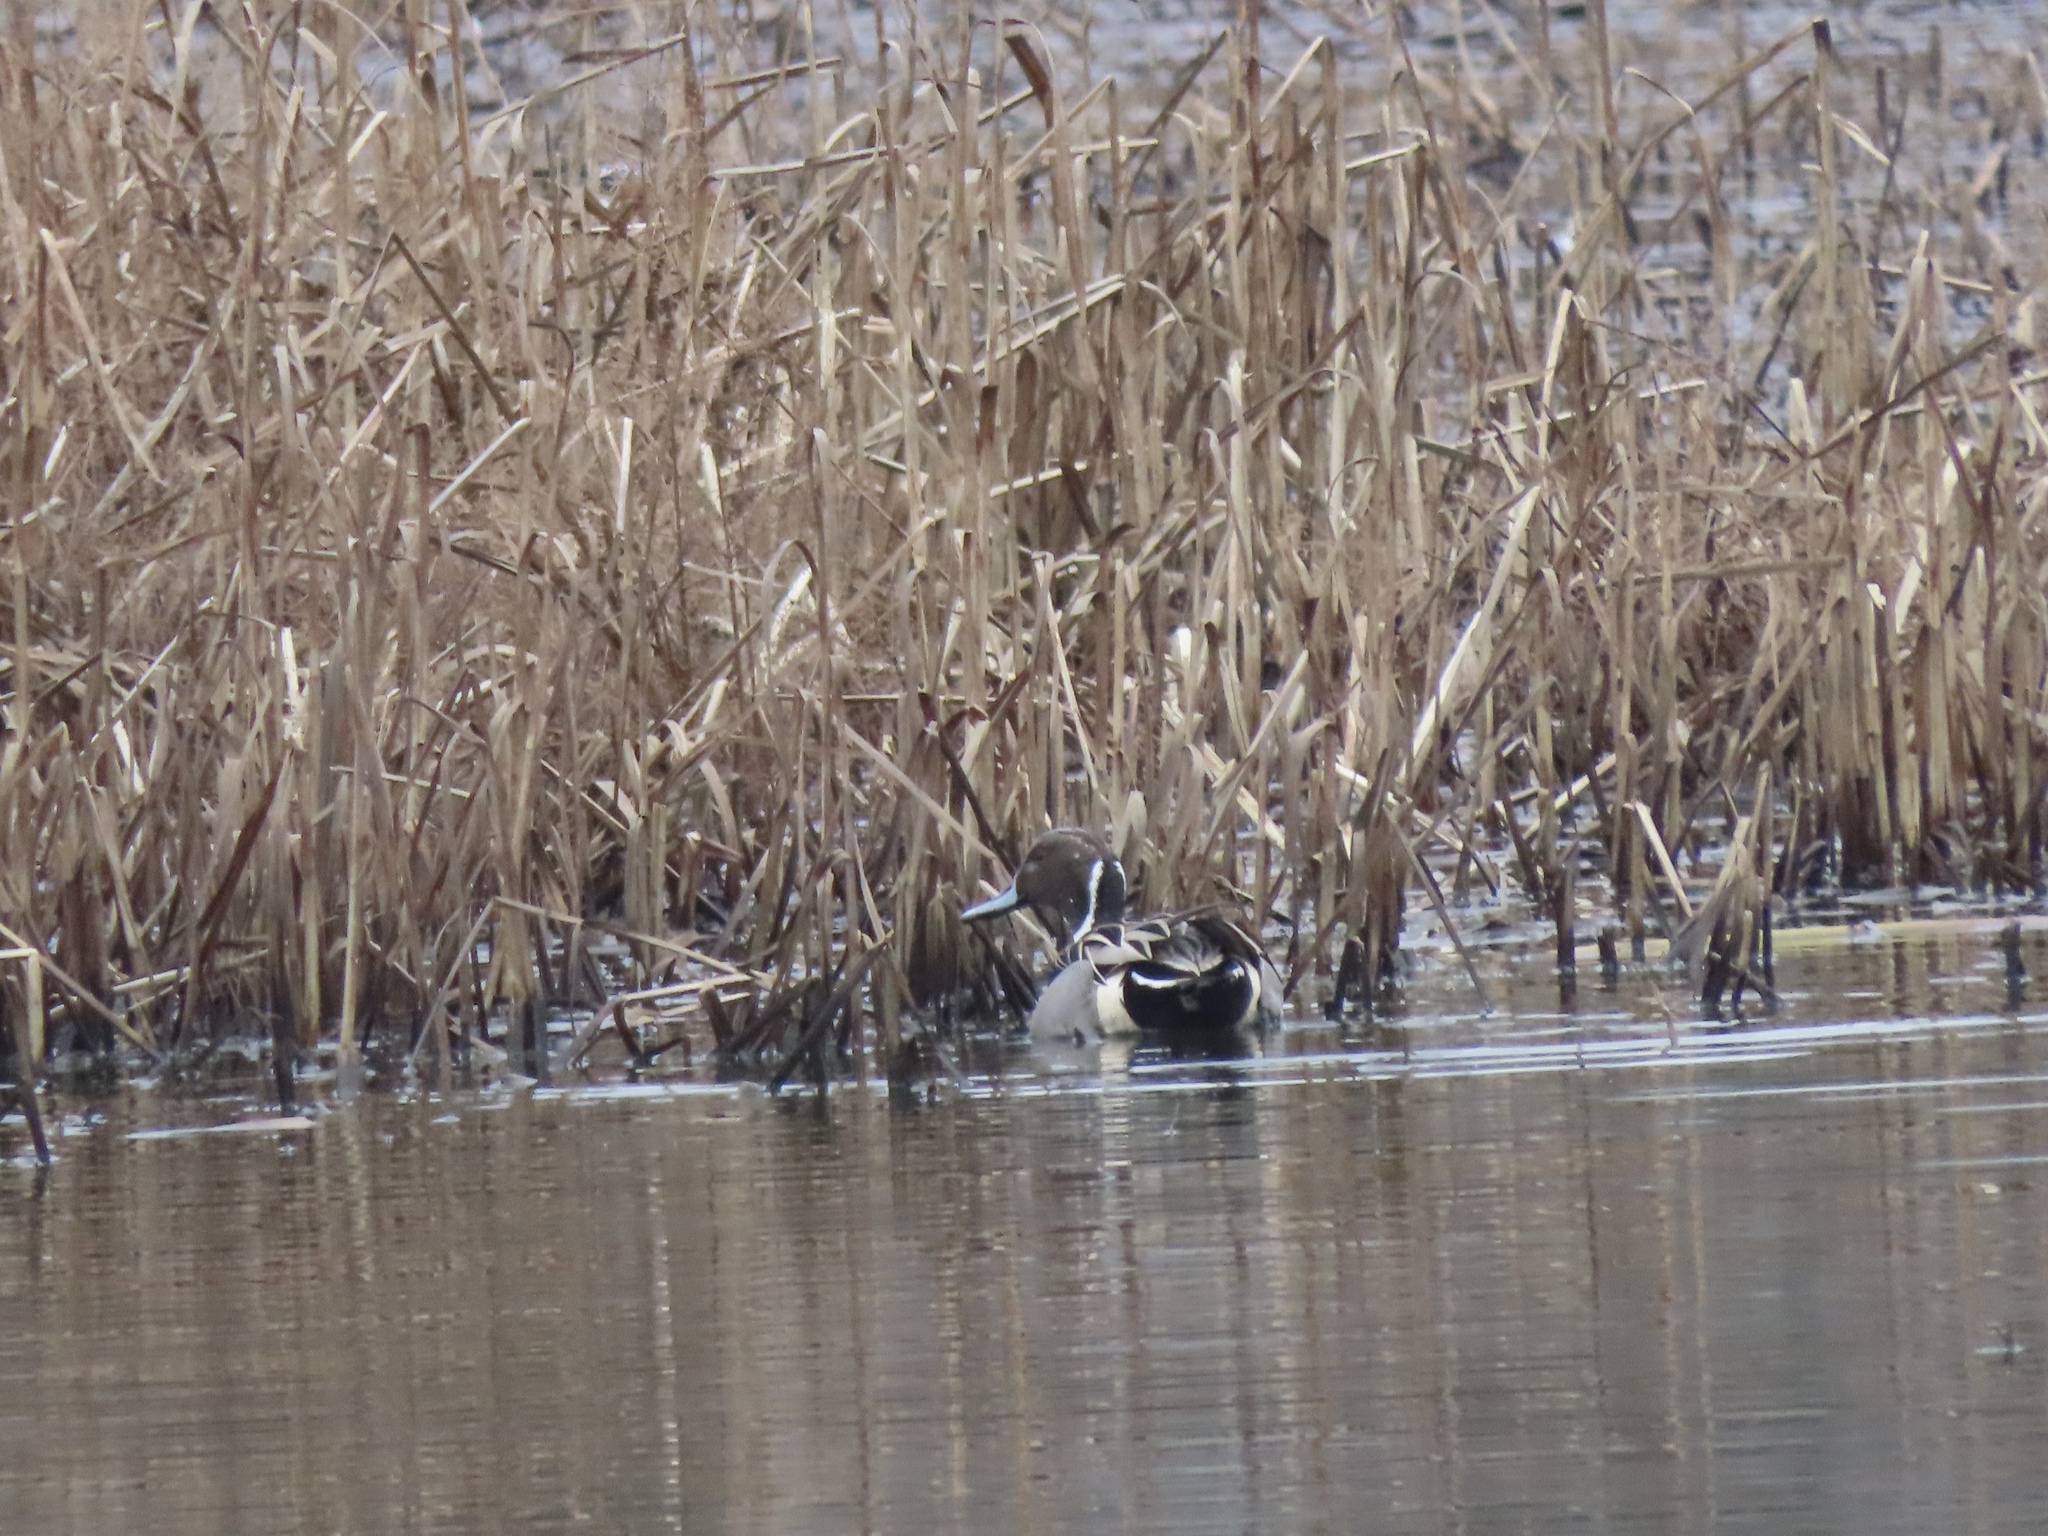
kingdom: Animalia
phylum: Chordata
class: Aves
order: Anseriformes
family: Anatidae
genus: Anas
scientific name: Anas acuta
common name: Northern pintail
